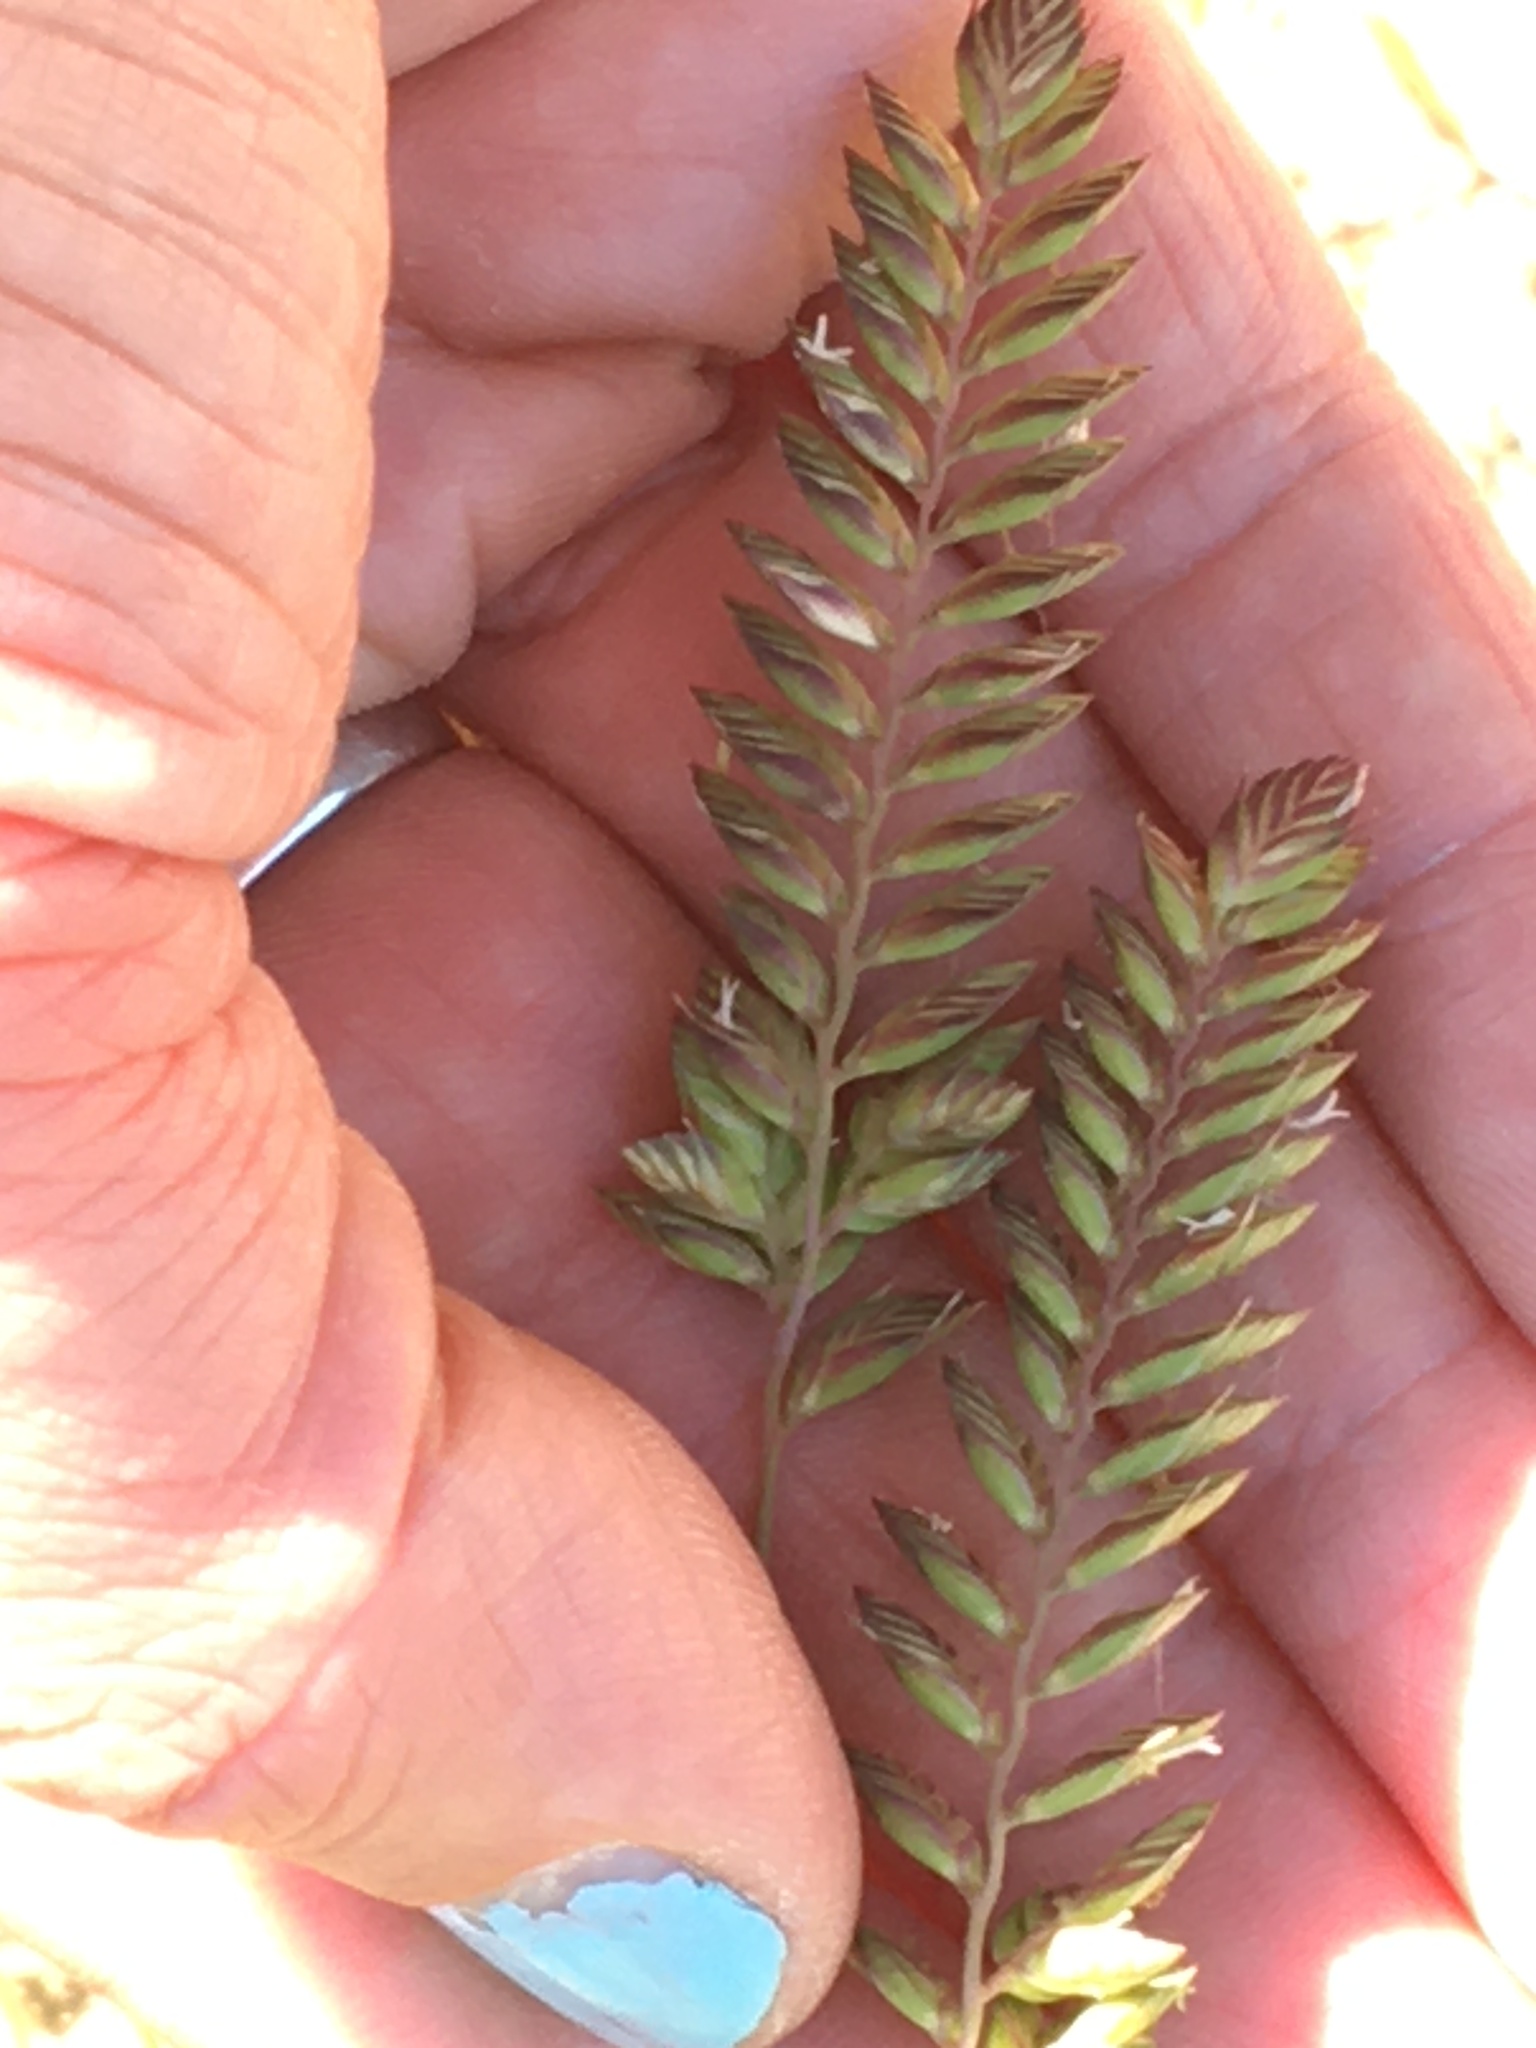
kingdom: Plantae
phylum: Tracheophyta
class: Liliopsida
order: Poales
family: Poaceae
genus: Tribolium
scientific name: Tribolium uniolae
